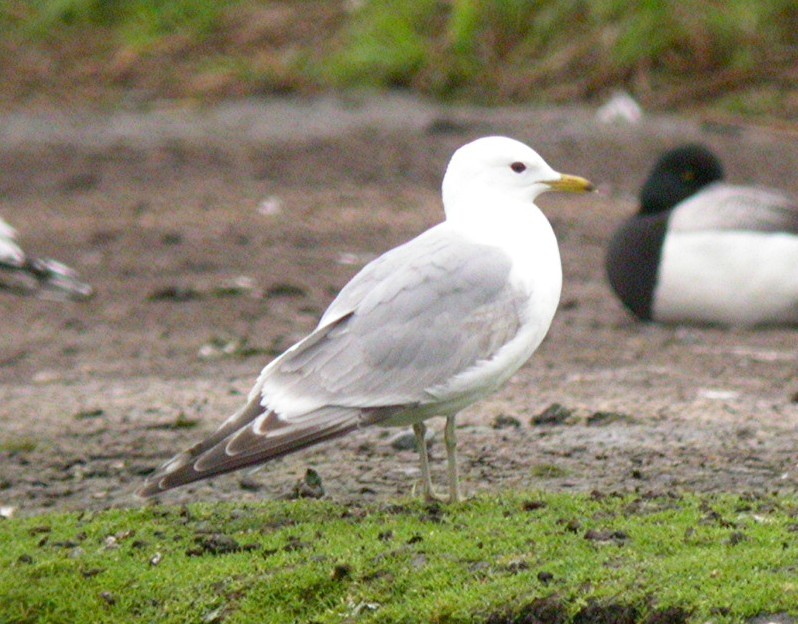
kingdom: Animalia
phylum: Chordata
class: Aves
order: Charadriiformes
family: Laridae
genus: Larus
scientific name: Larus brachyrhynchus
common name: Short-billed gull
